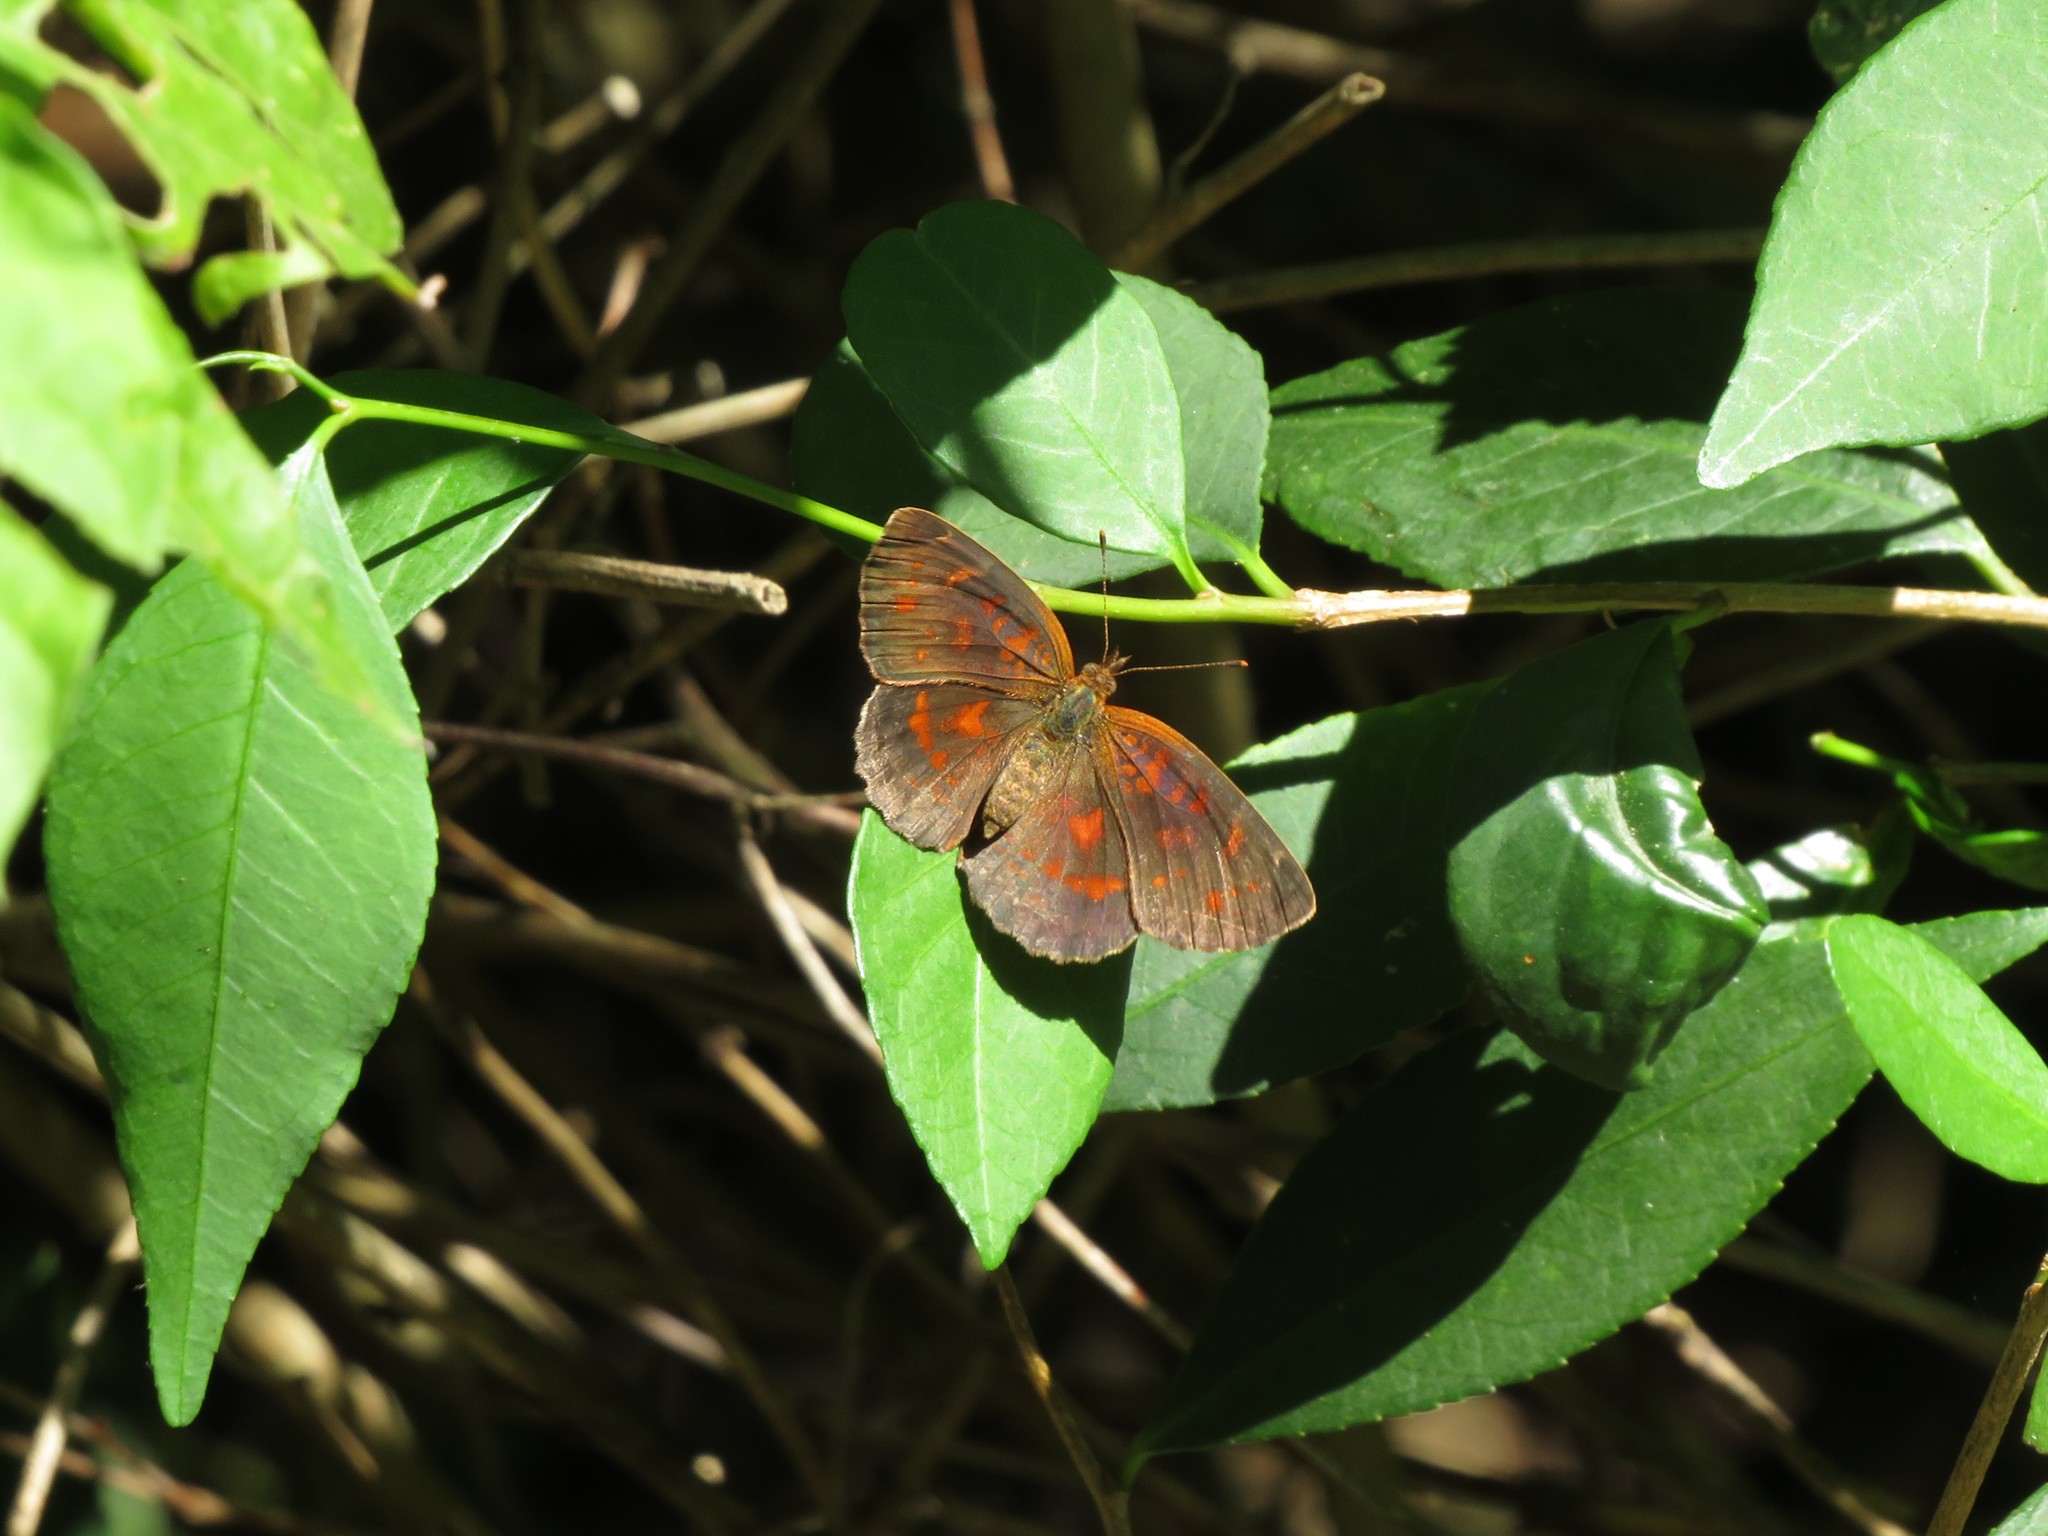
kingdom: Animalia
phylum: Arthropoda
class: Insecta
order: Lepidoptera
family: Nymphalidae
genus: Ortilia
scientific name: Ortilia velica
